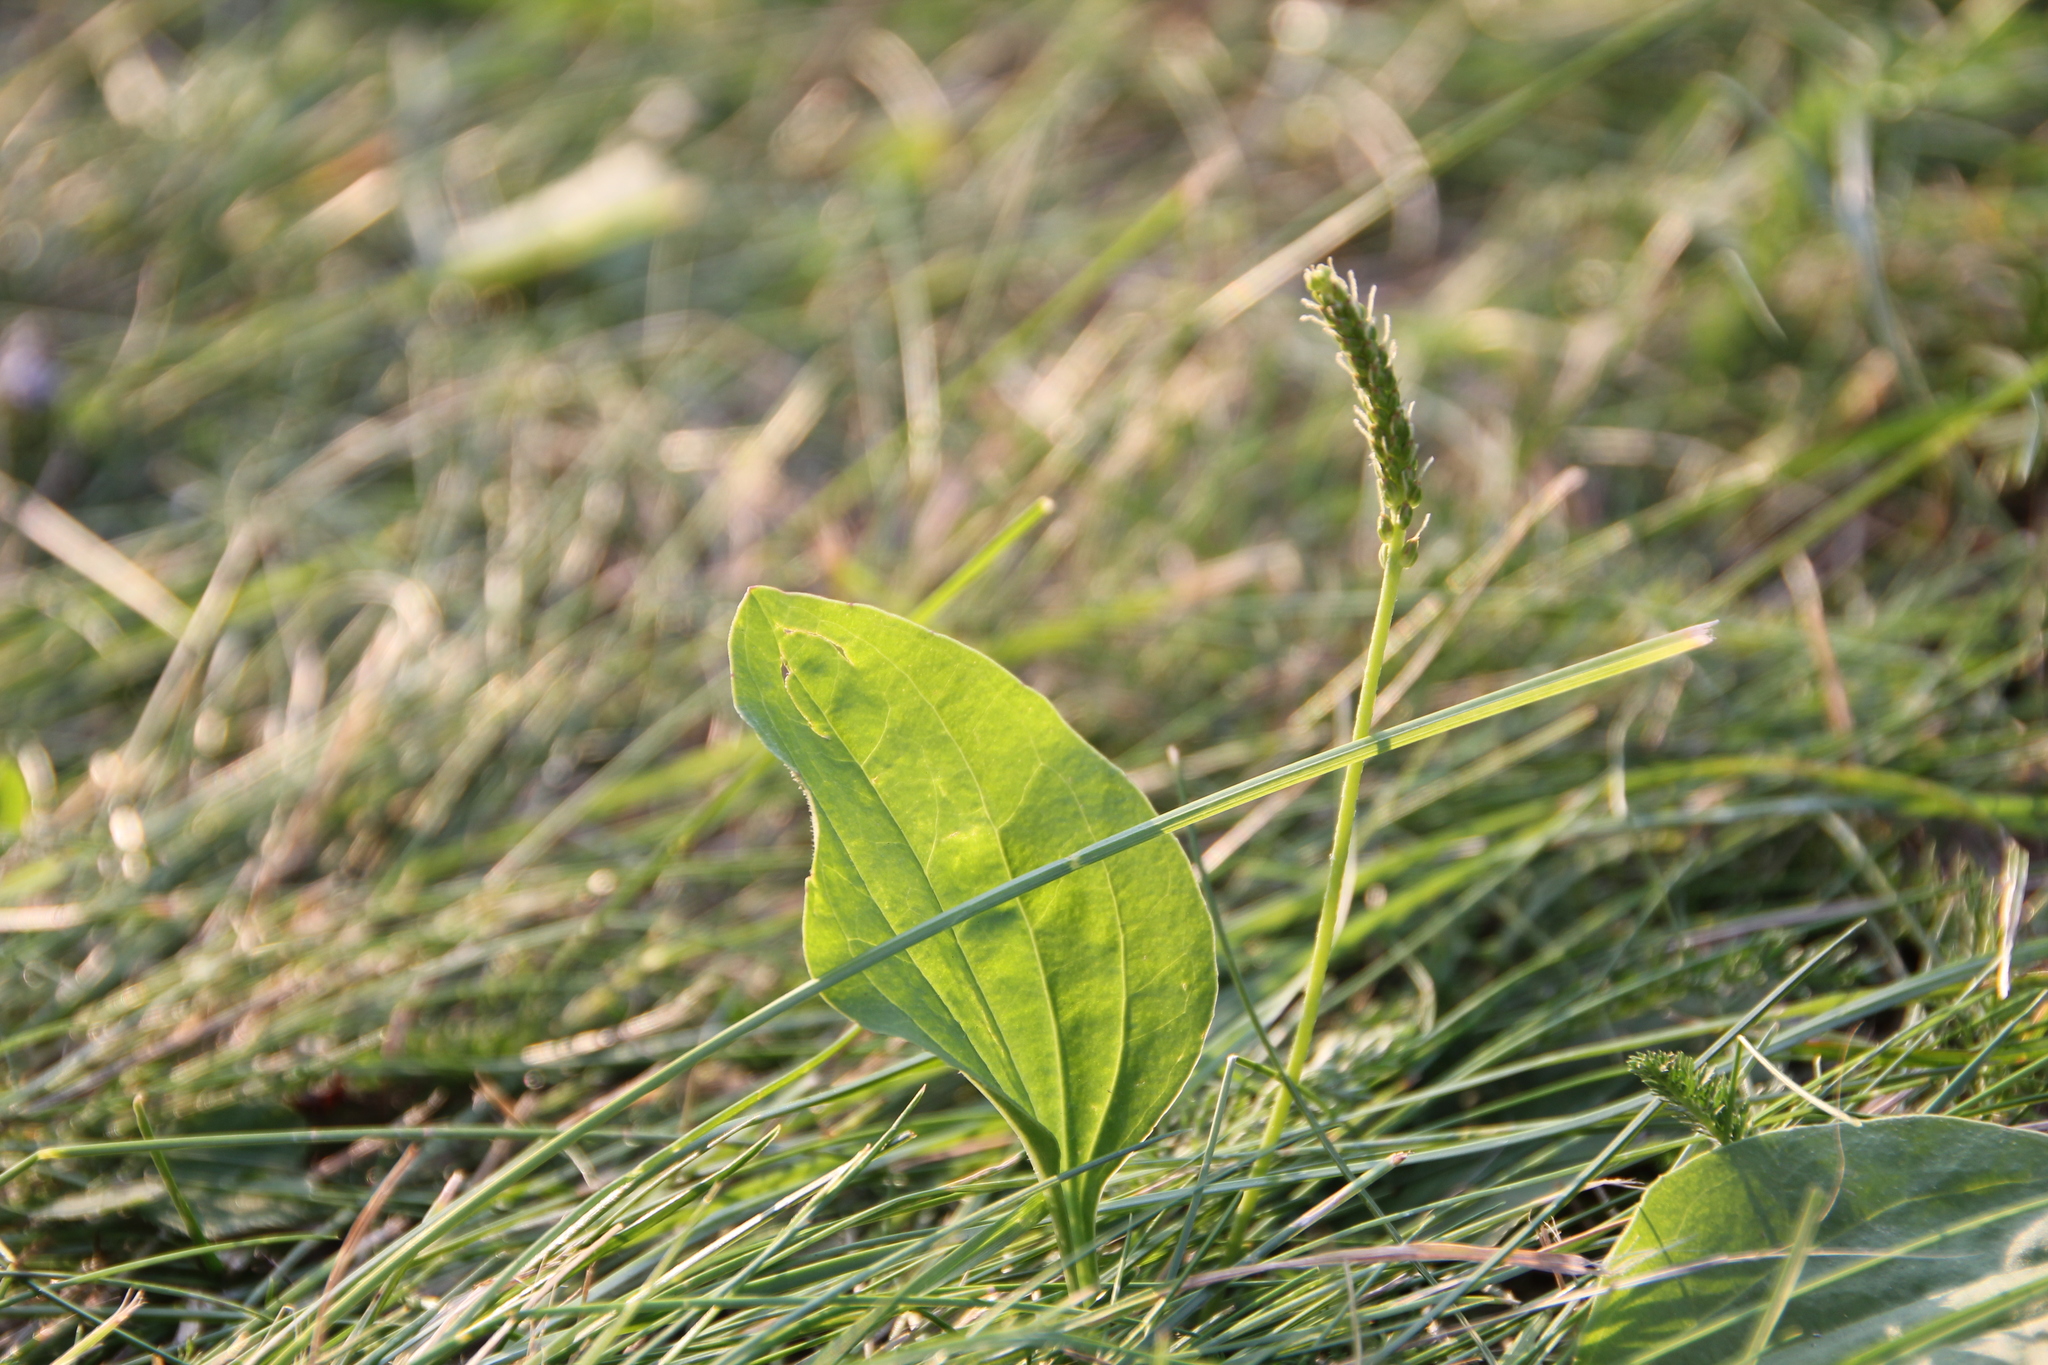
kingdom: Plantae
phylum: Tracheophyta
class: Magnoliopsida
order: Lamiales
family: Plantaginaceae
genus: Plantago
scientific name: Plantago major
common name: Common plantain
